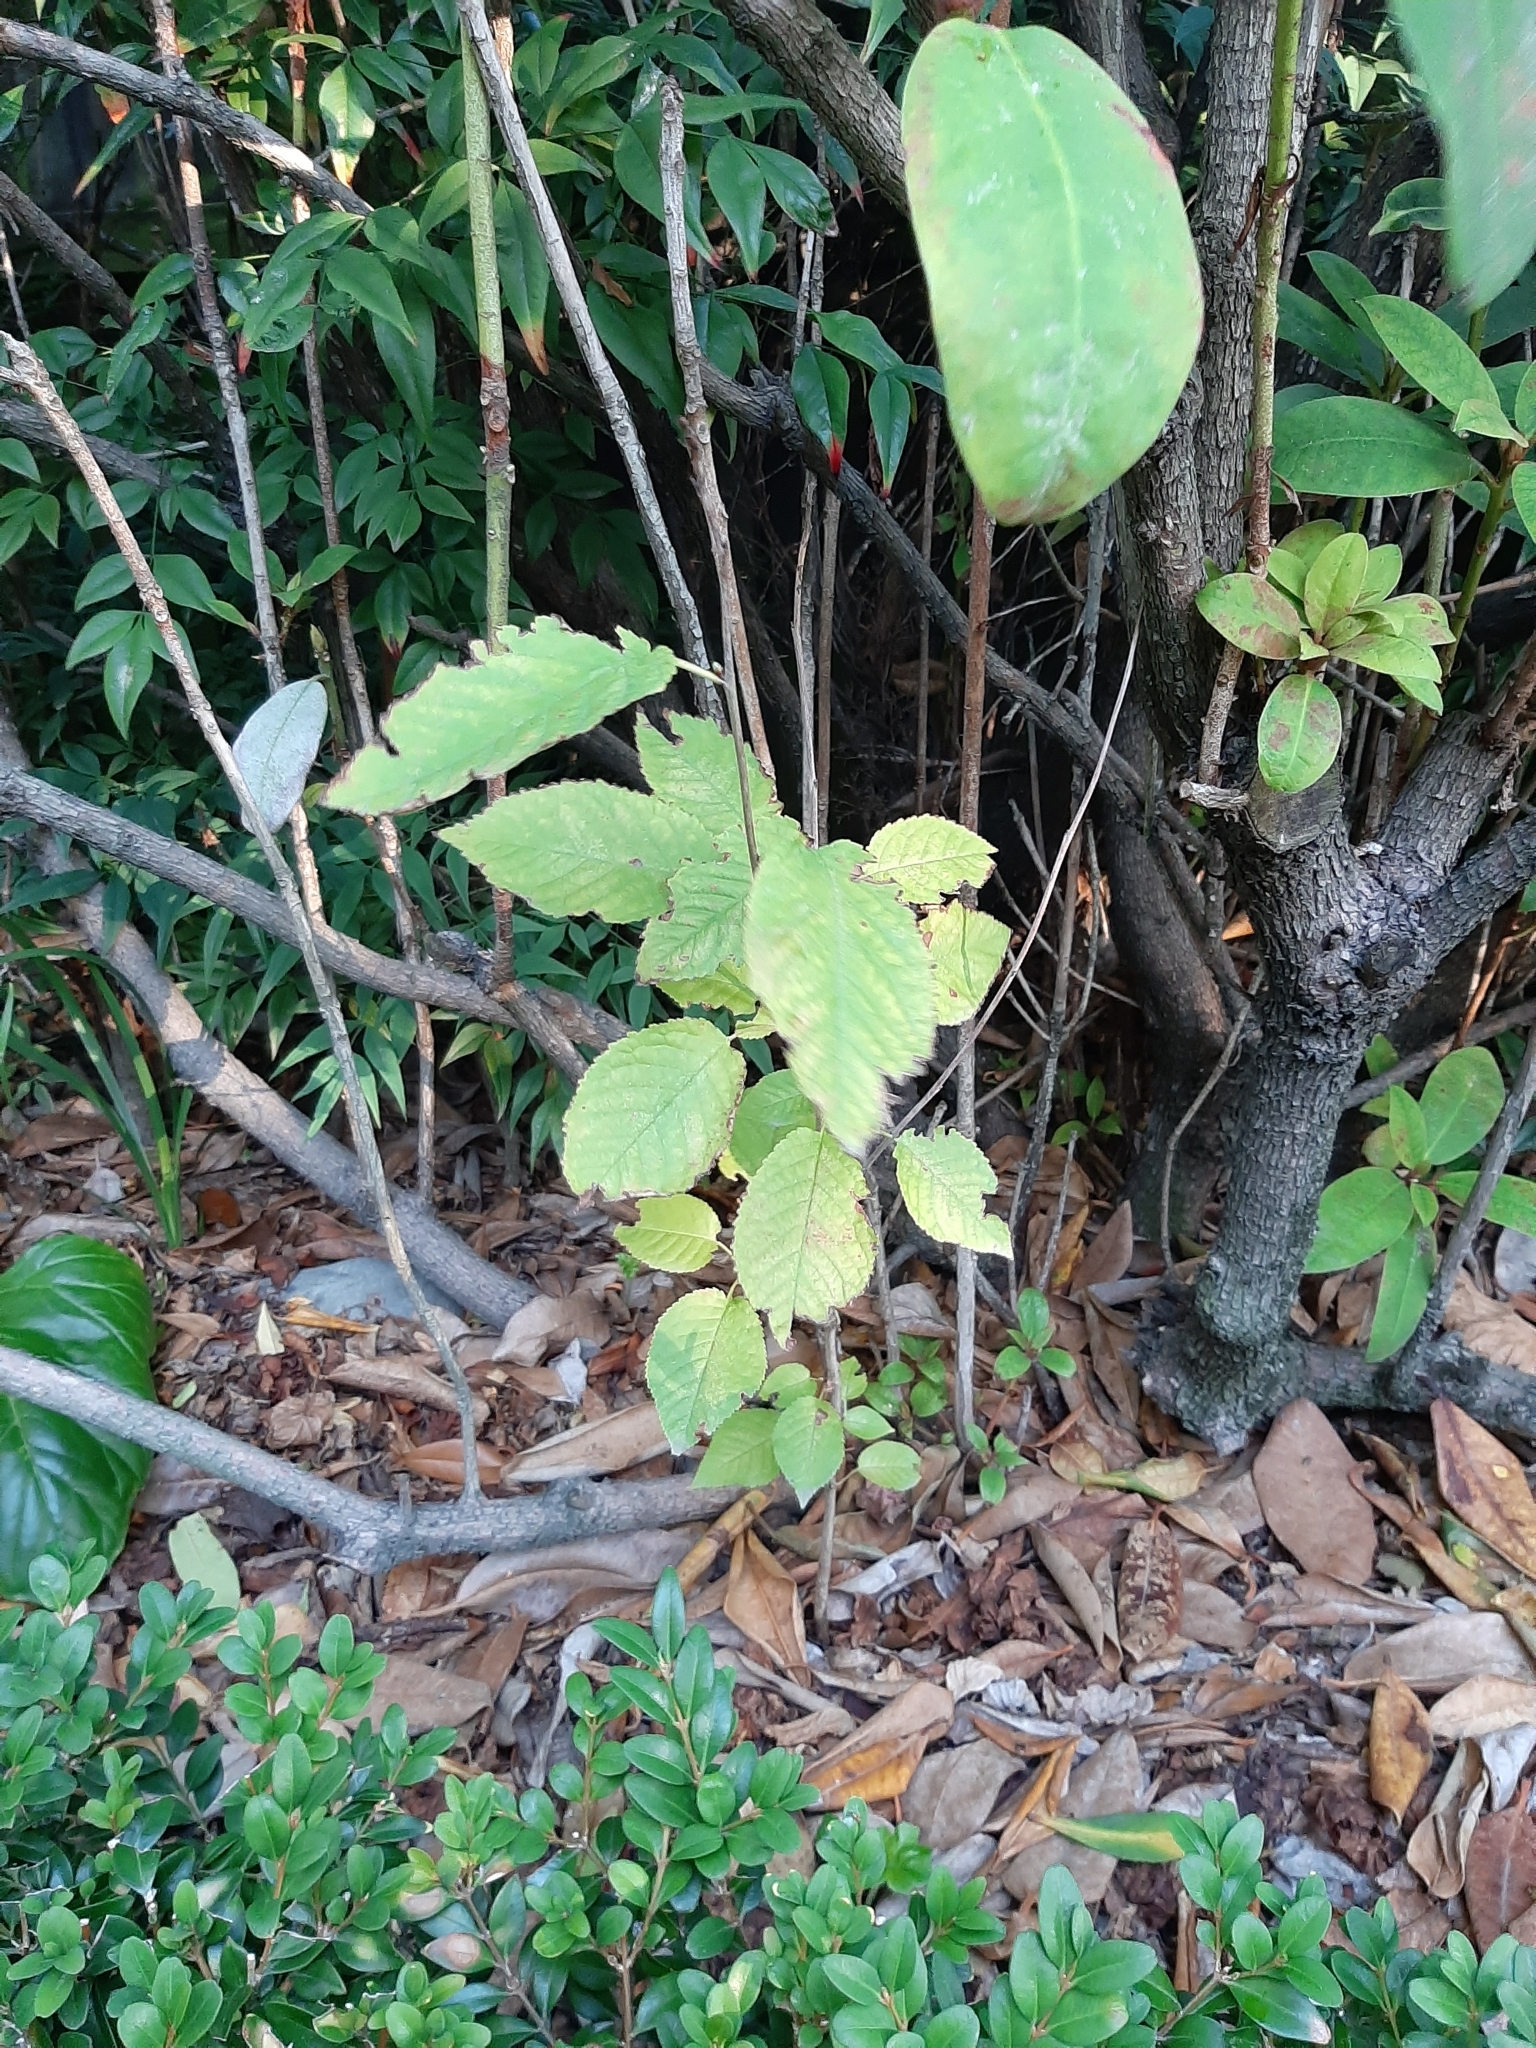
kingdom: Plantae
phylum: Tracheophyta
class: Magnoliopsida
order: Rosales
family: Rosaceae
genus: Prunus
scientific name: Prunus avium
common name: Sweet cherry
